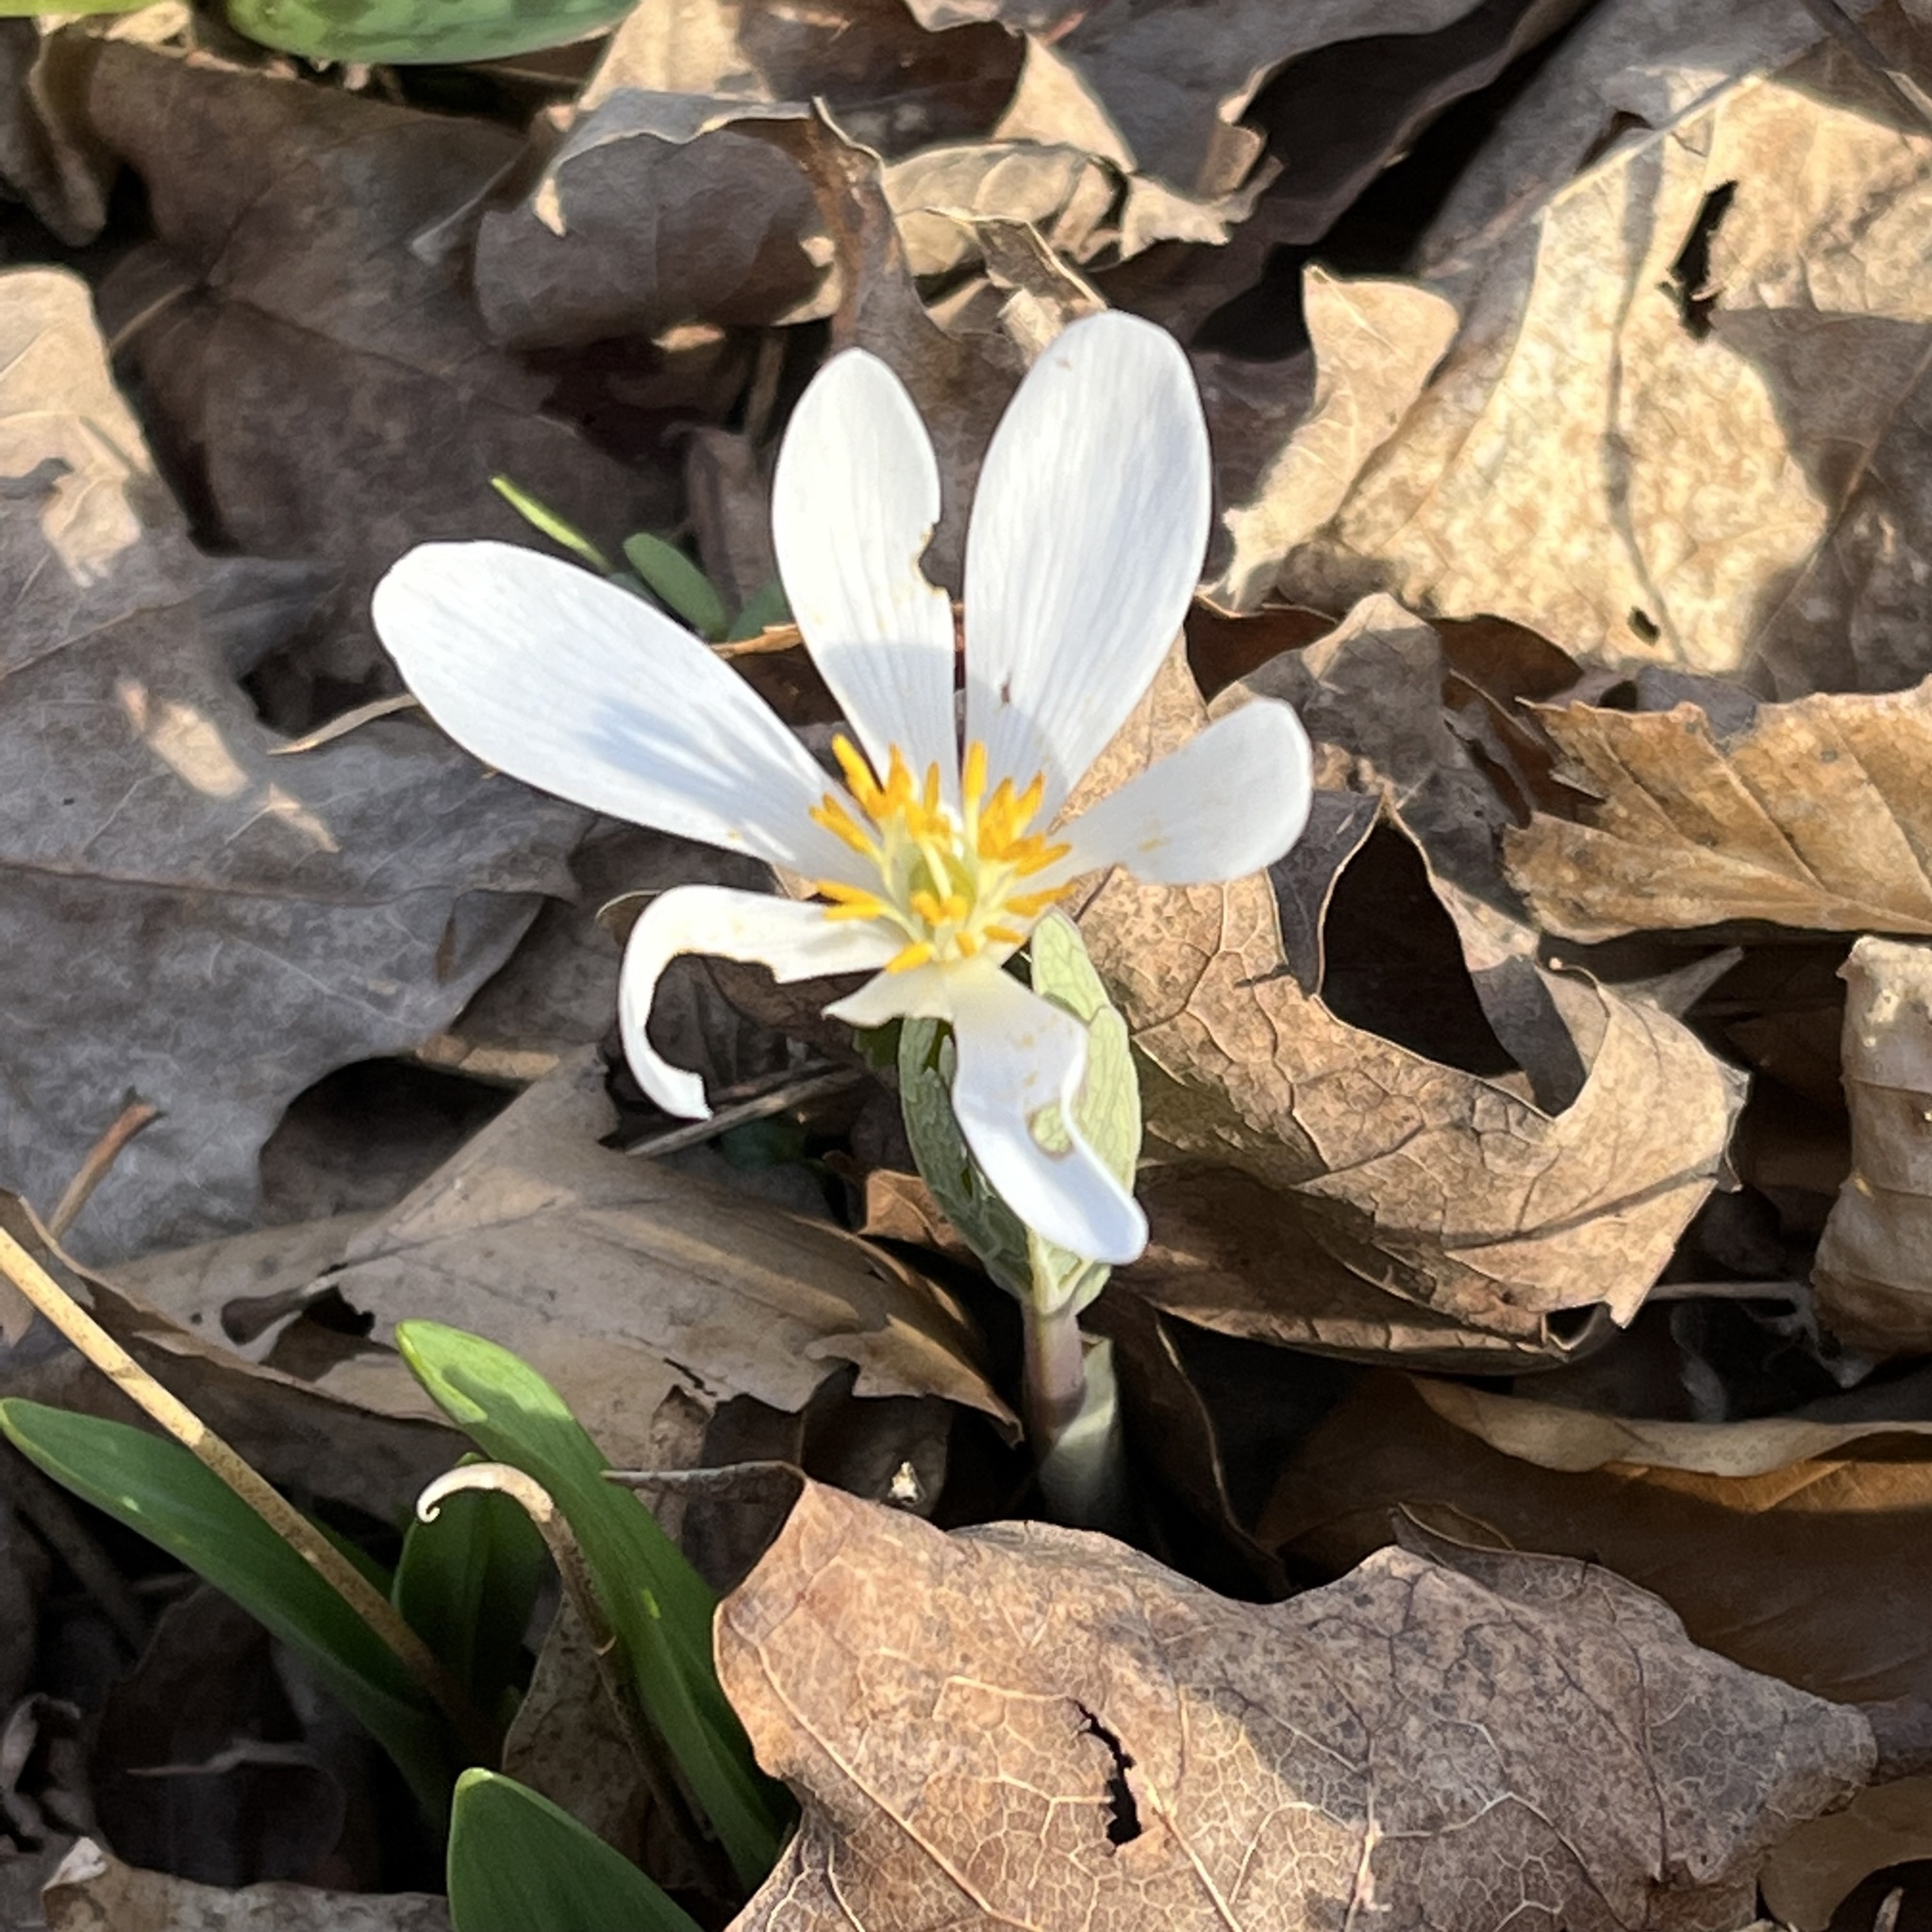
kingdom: Plantae
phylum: Tracheophyta
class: Magnoliopsida
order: Ranunculales
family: Papaveraceae
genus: Sanguinaria
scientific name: Sanguinaria canadensis
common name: Bloodroot
